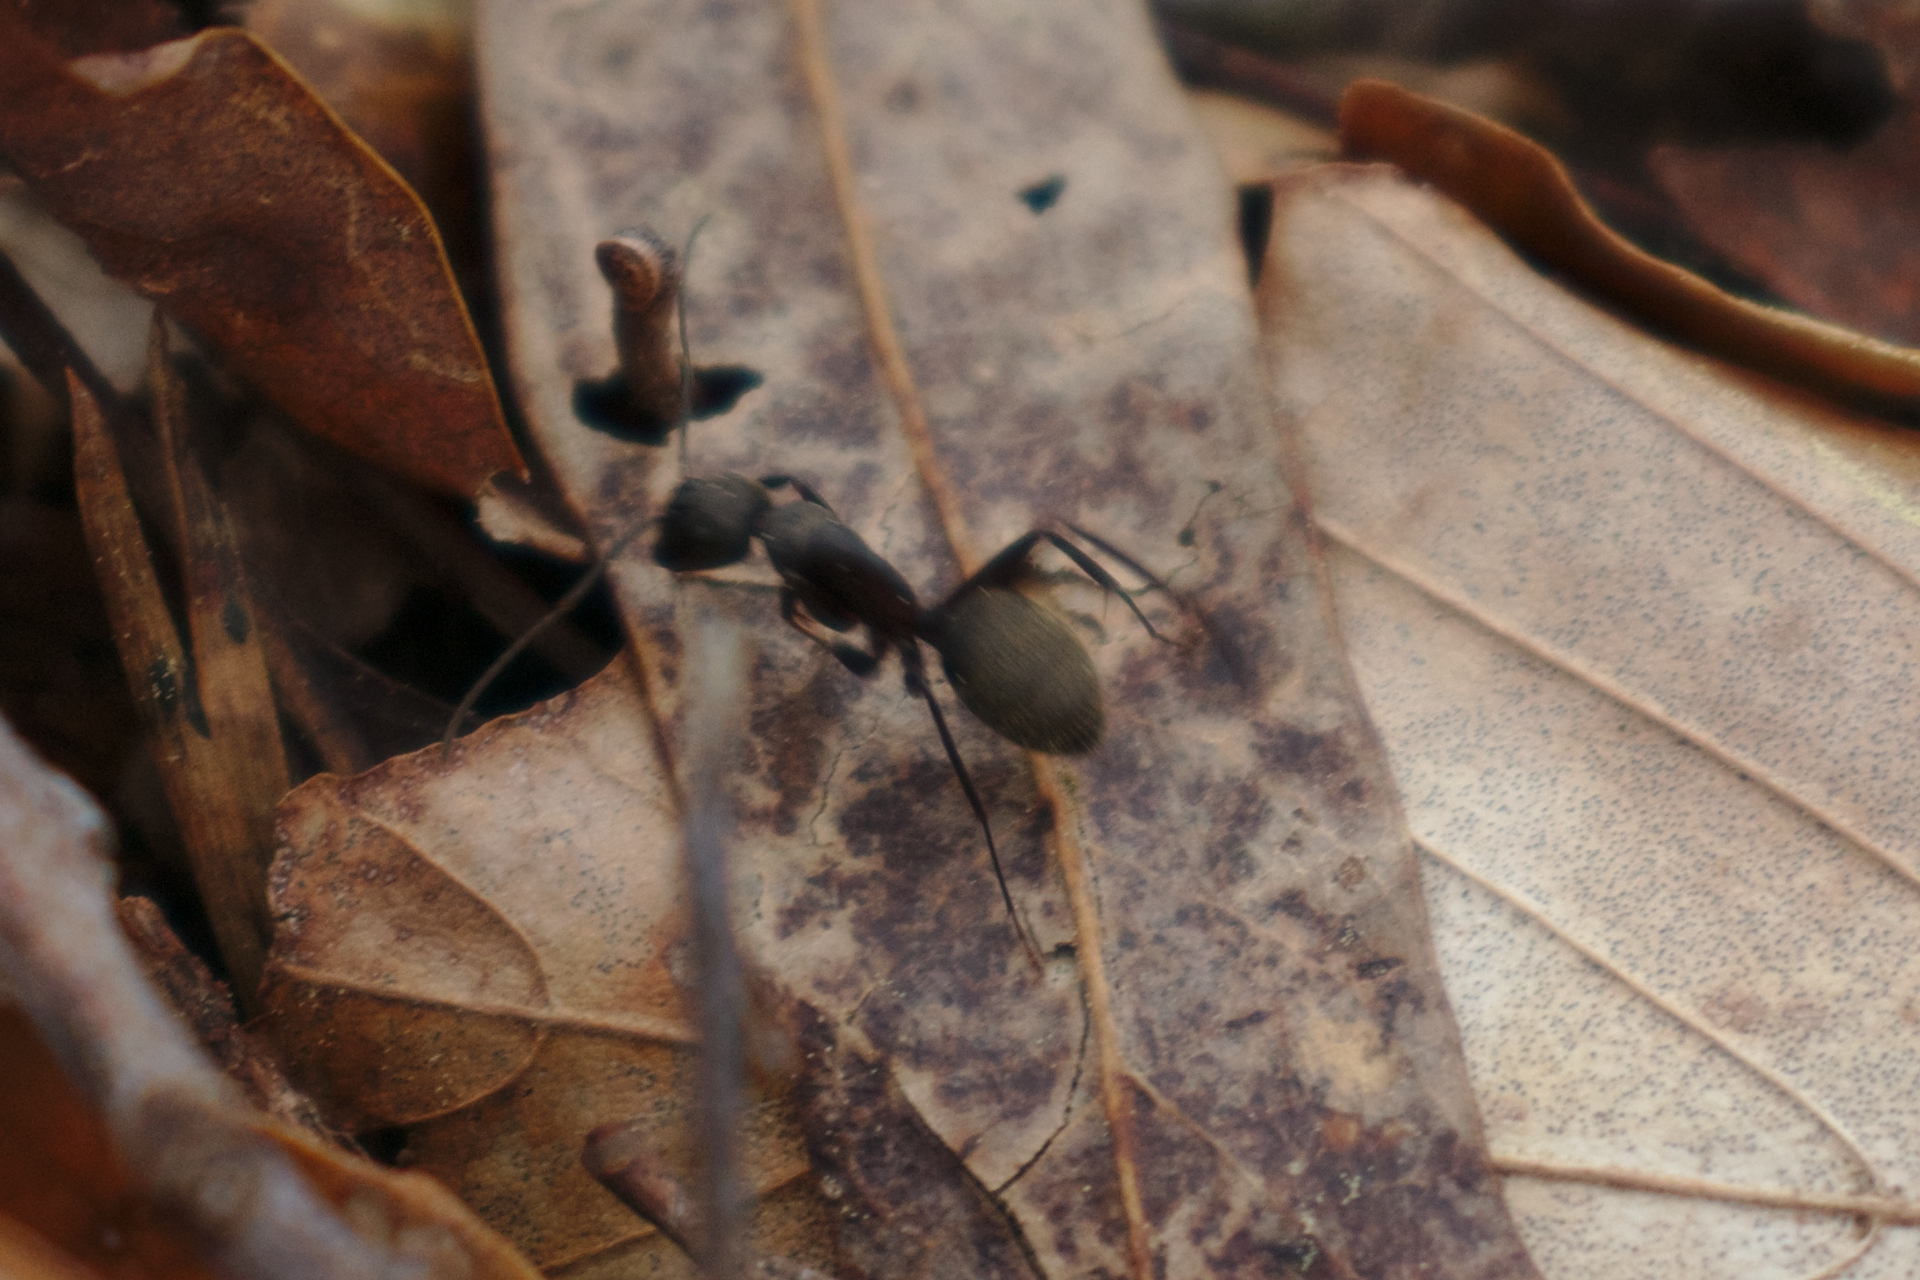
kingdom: Animalia
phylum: Arthropoda
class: Insecta
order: Hymenoptera
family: Formicidae
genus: Camponotus
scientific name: Camponotus pennsylvanicus
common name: Black carpenter ant
